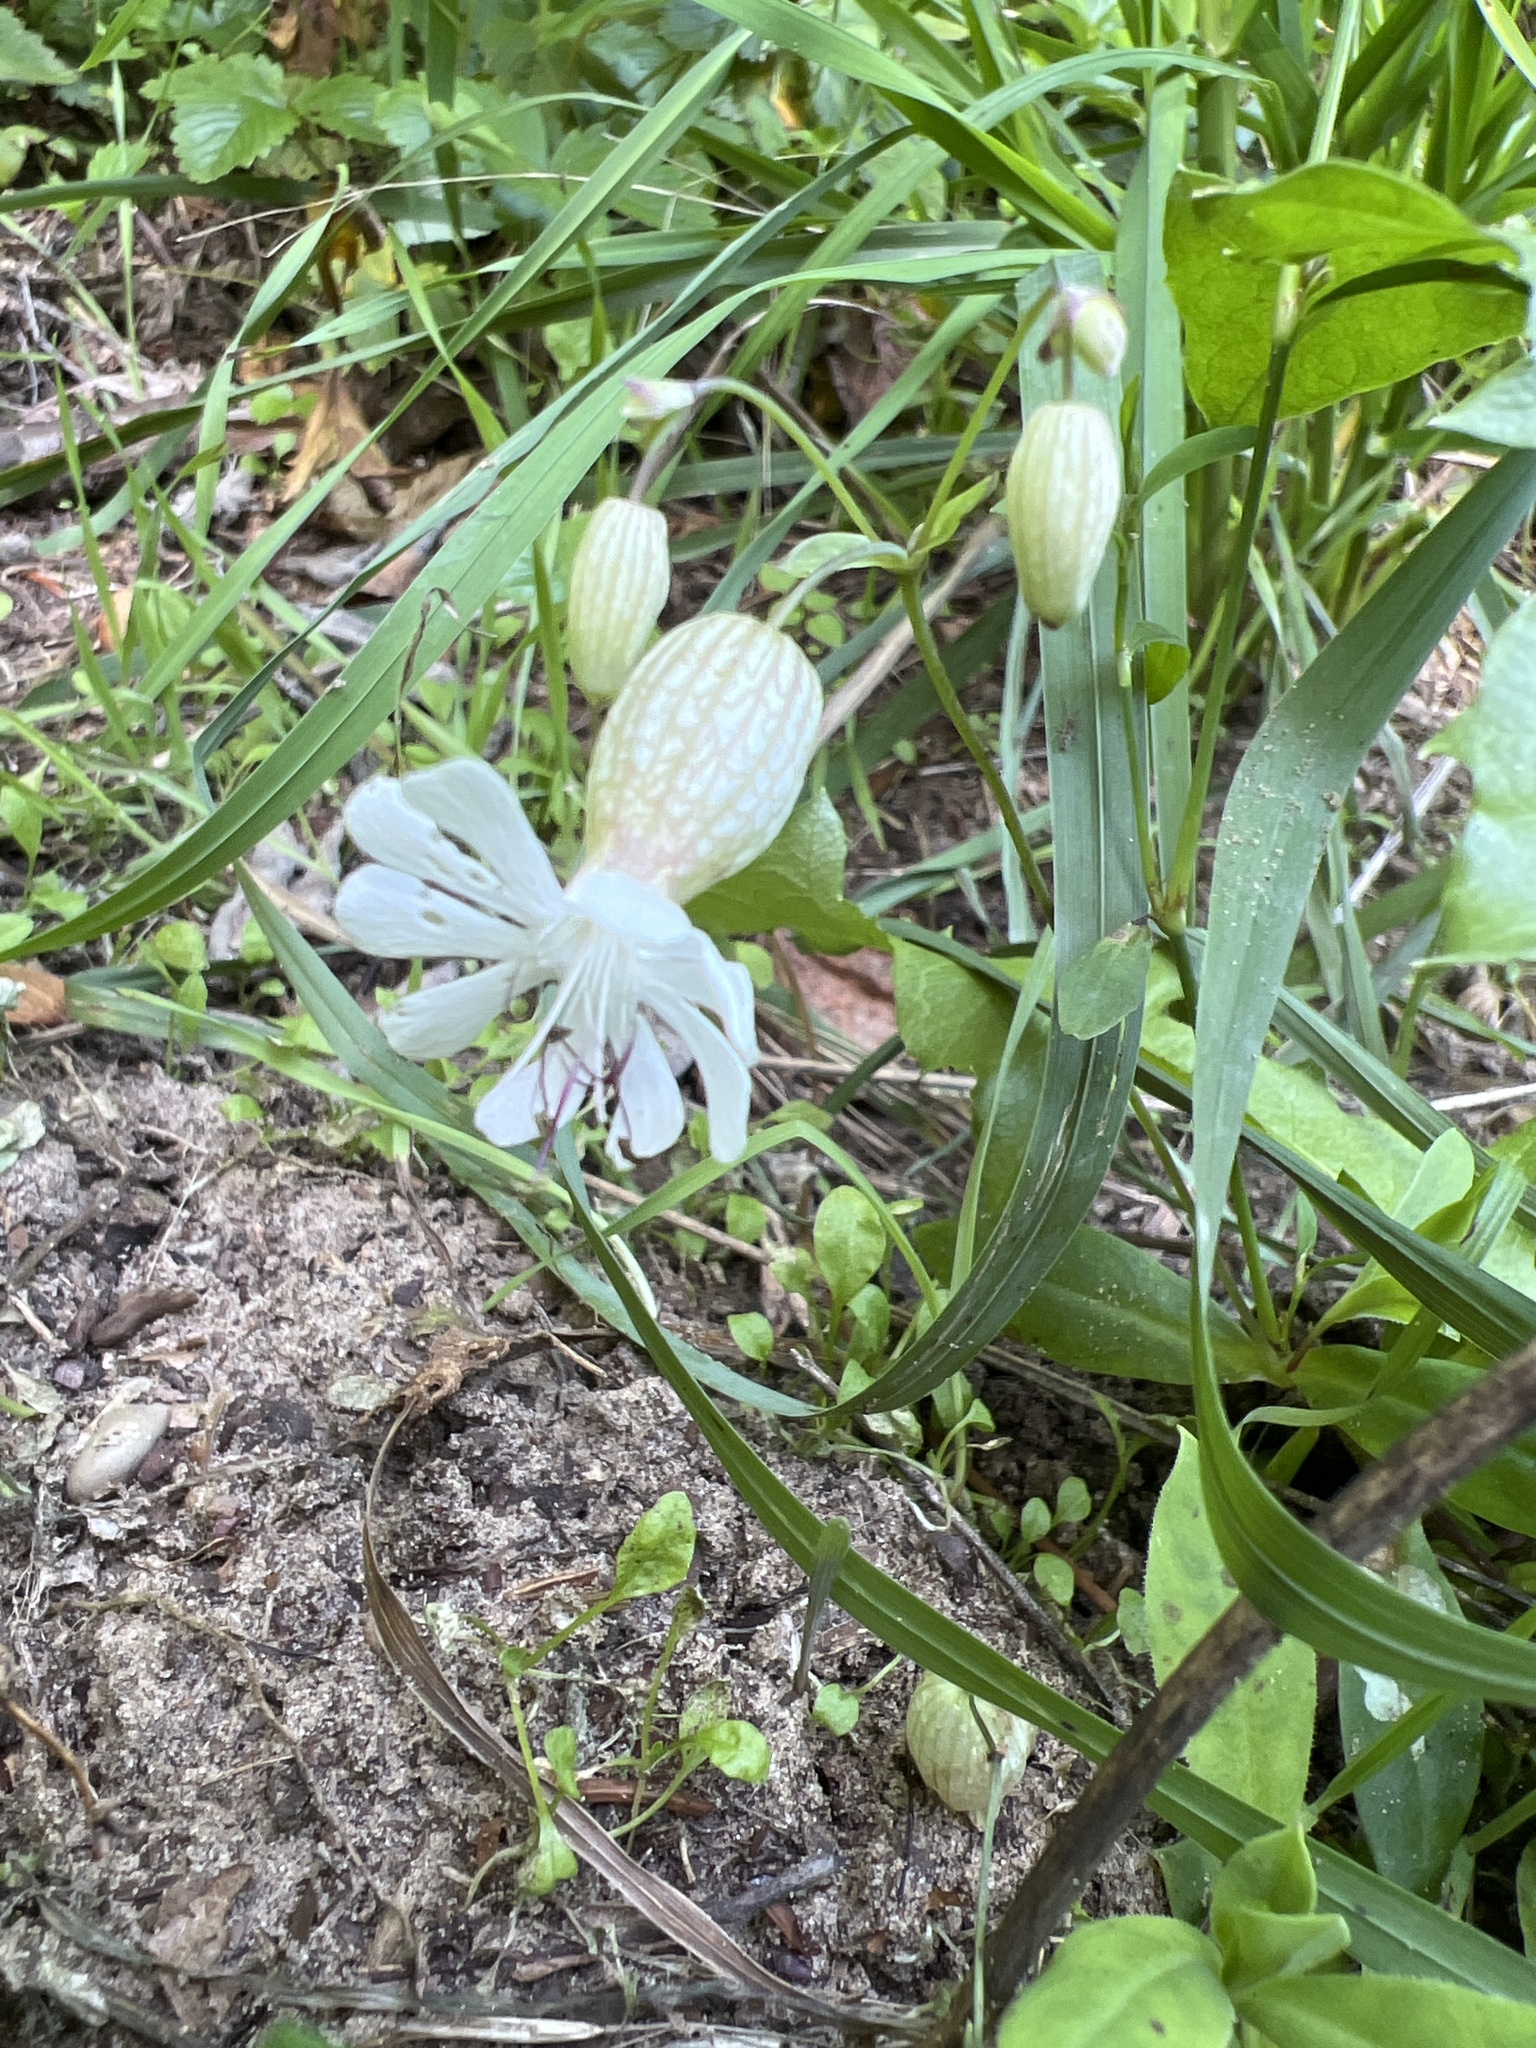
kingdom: Plantae
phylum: Tracheophyta
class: Magnoliopsida
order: Caryophyllales
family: Caryophyllaceae
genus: Silene
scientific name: Silene vulgaris
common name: Bladder campion
